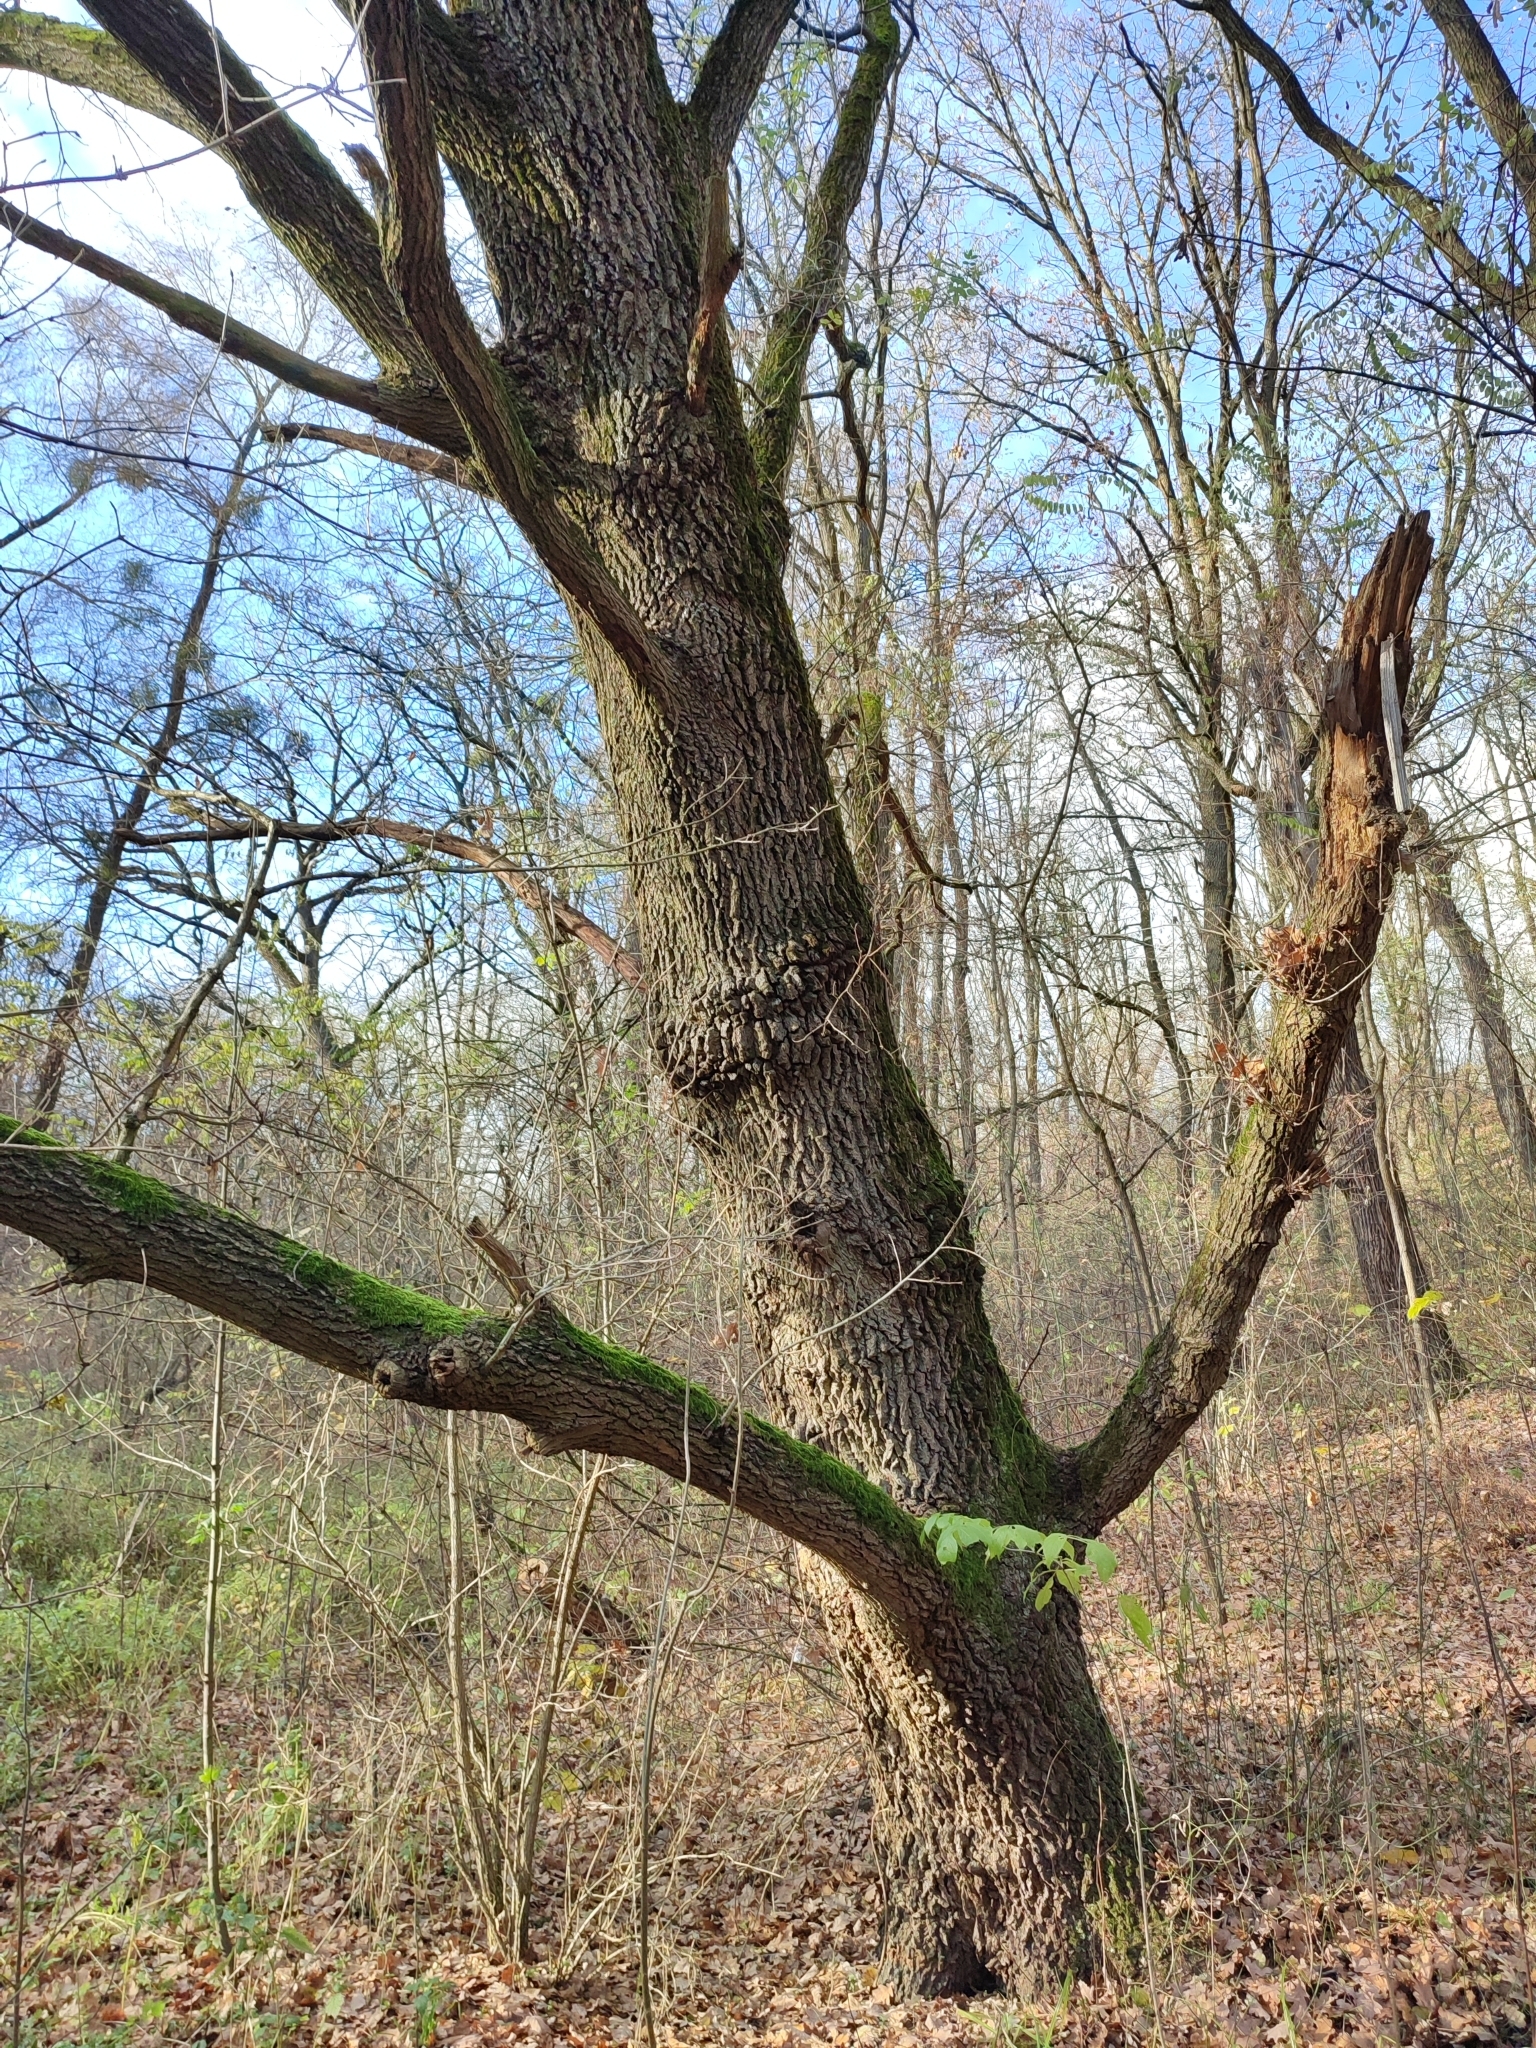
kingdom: Plantae
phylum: Tracheophyta
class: Magnoliopsida
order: Fagales
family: Fagaceae
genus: Quercus
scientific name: Quercus robur
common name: Pedunculate oak
